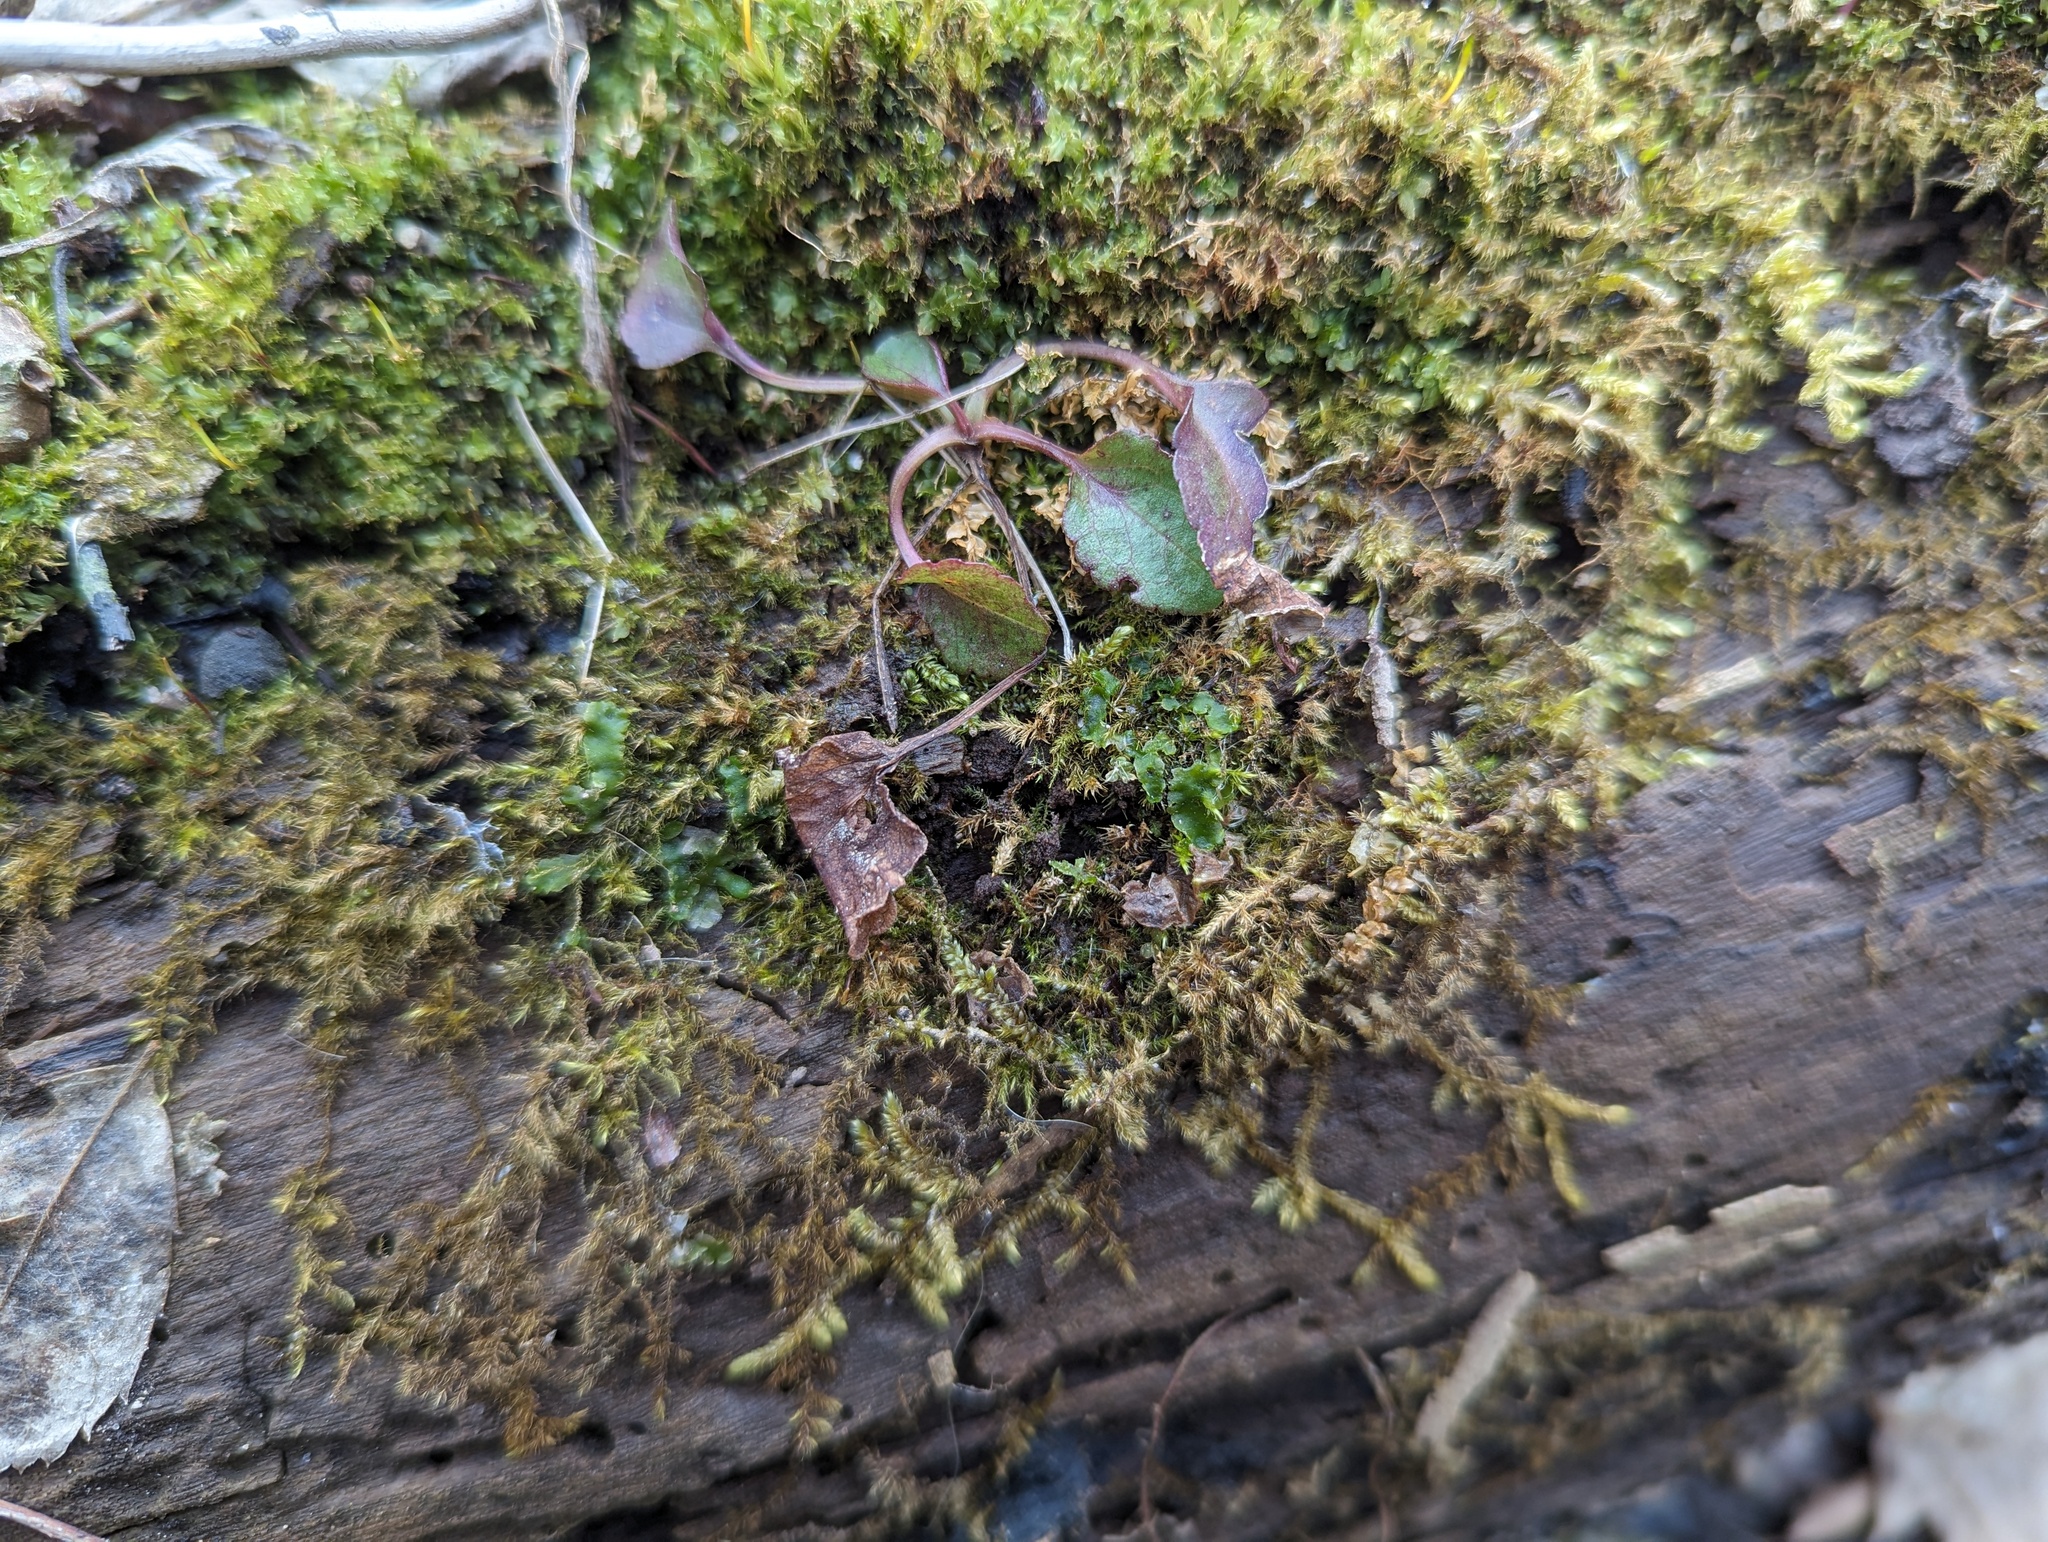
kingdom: Plantae
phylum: Marchantiophyta
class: Jungermanniopsida
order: Metzgeriales
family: Aneuraceae
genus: Aneura
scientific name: Aneura pinguis
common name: Common greasewort
